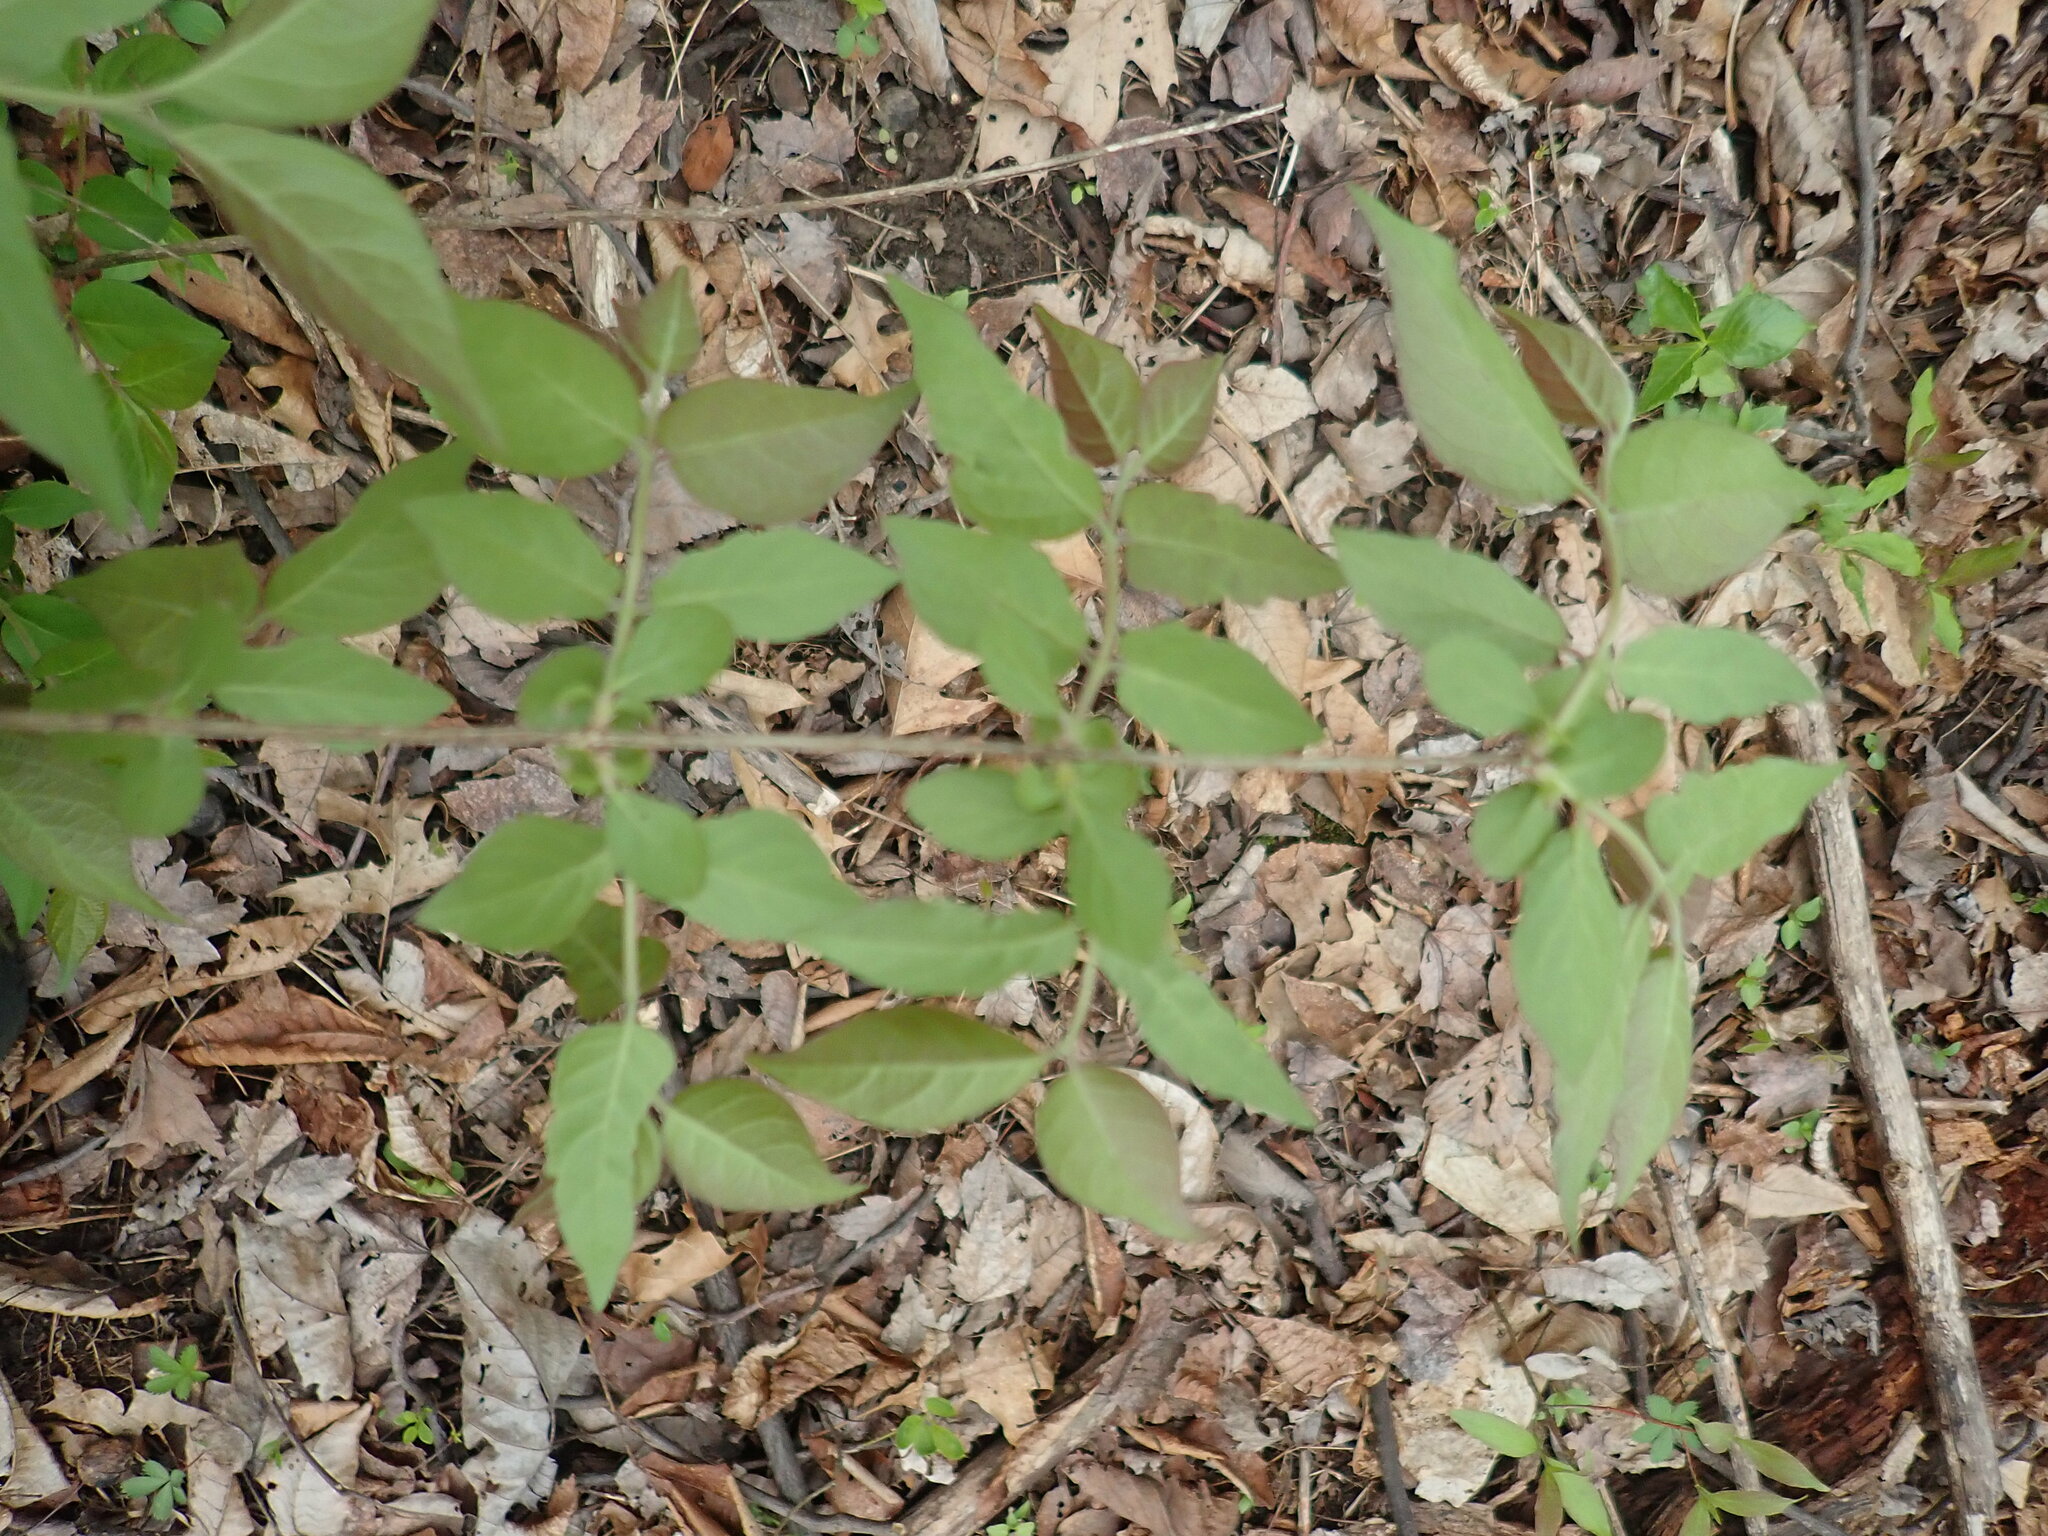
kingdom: Plantae
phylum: Tracheophyta
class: Magnoliopsida
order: Dipsacales
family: Caprifoliaceae
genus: Lonicera
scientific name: Lonicera maackii
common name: Amur honeysuckle
